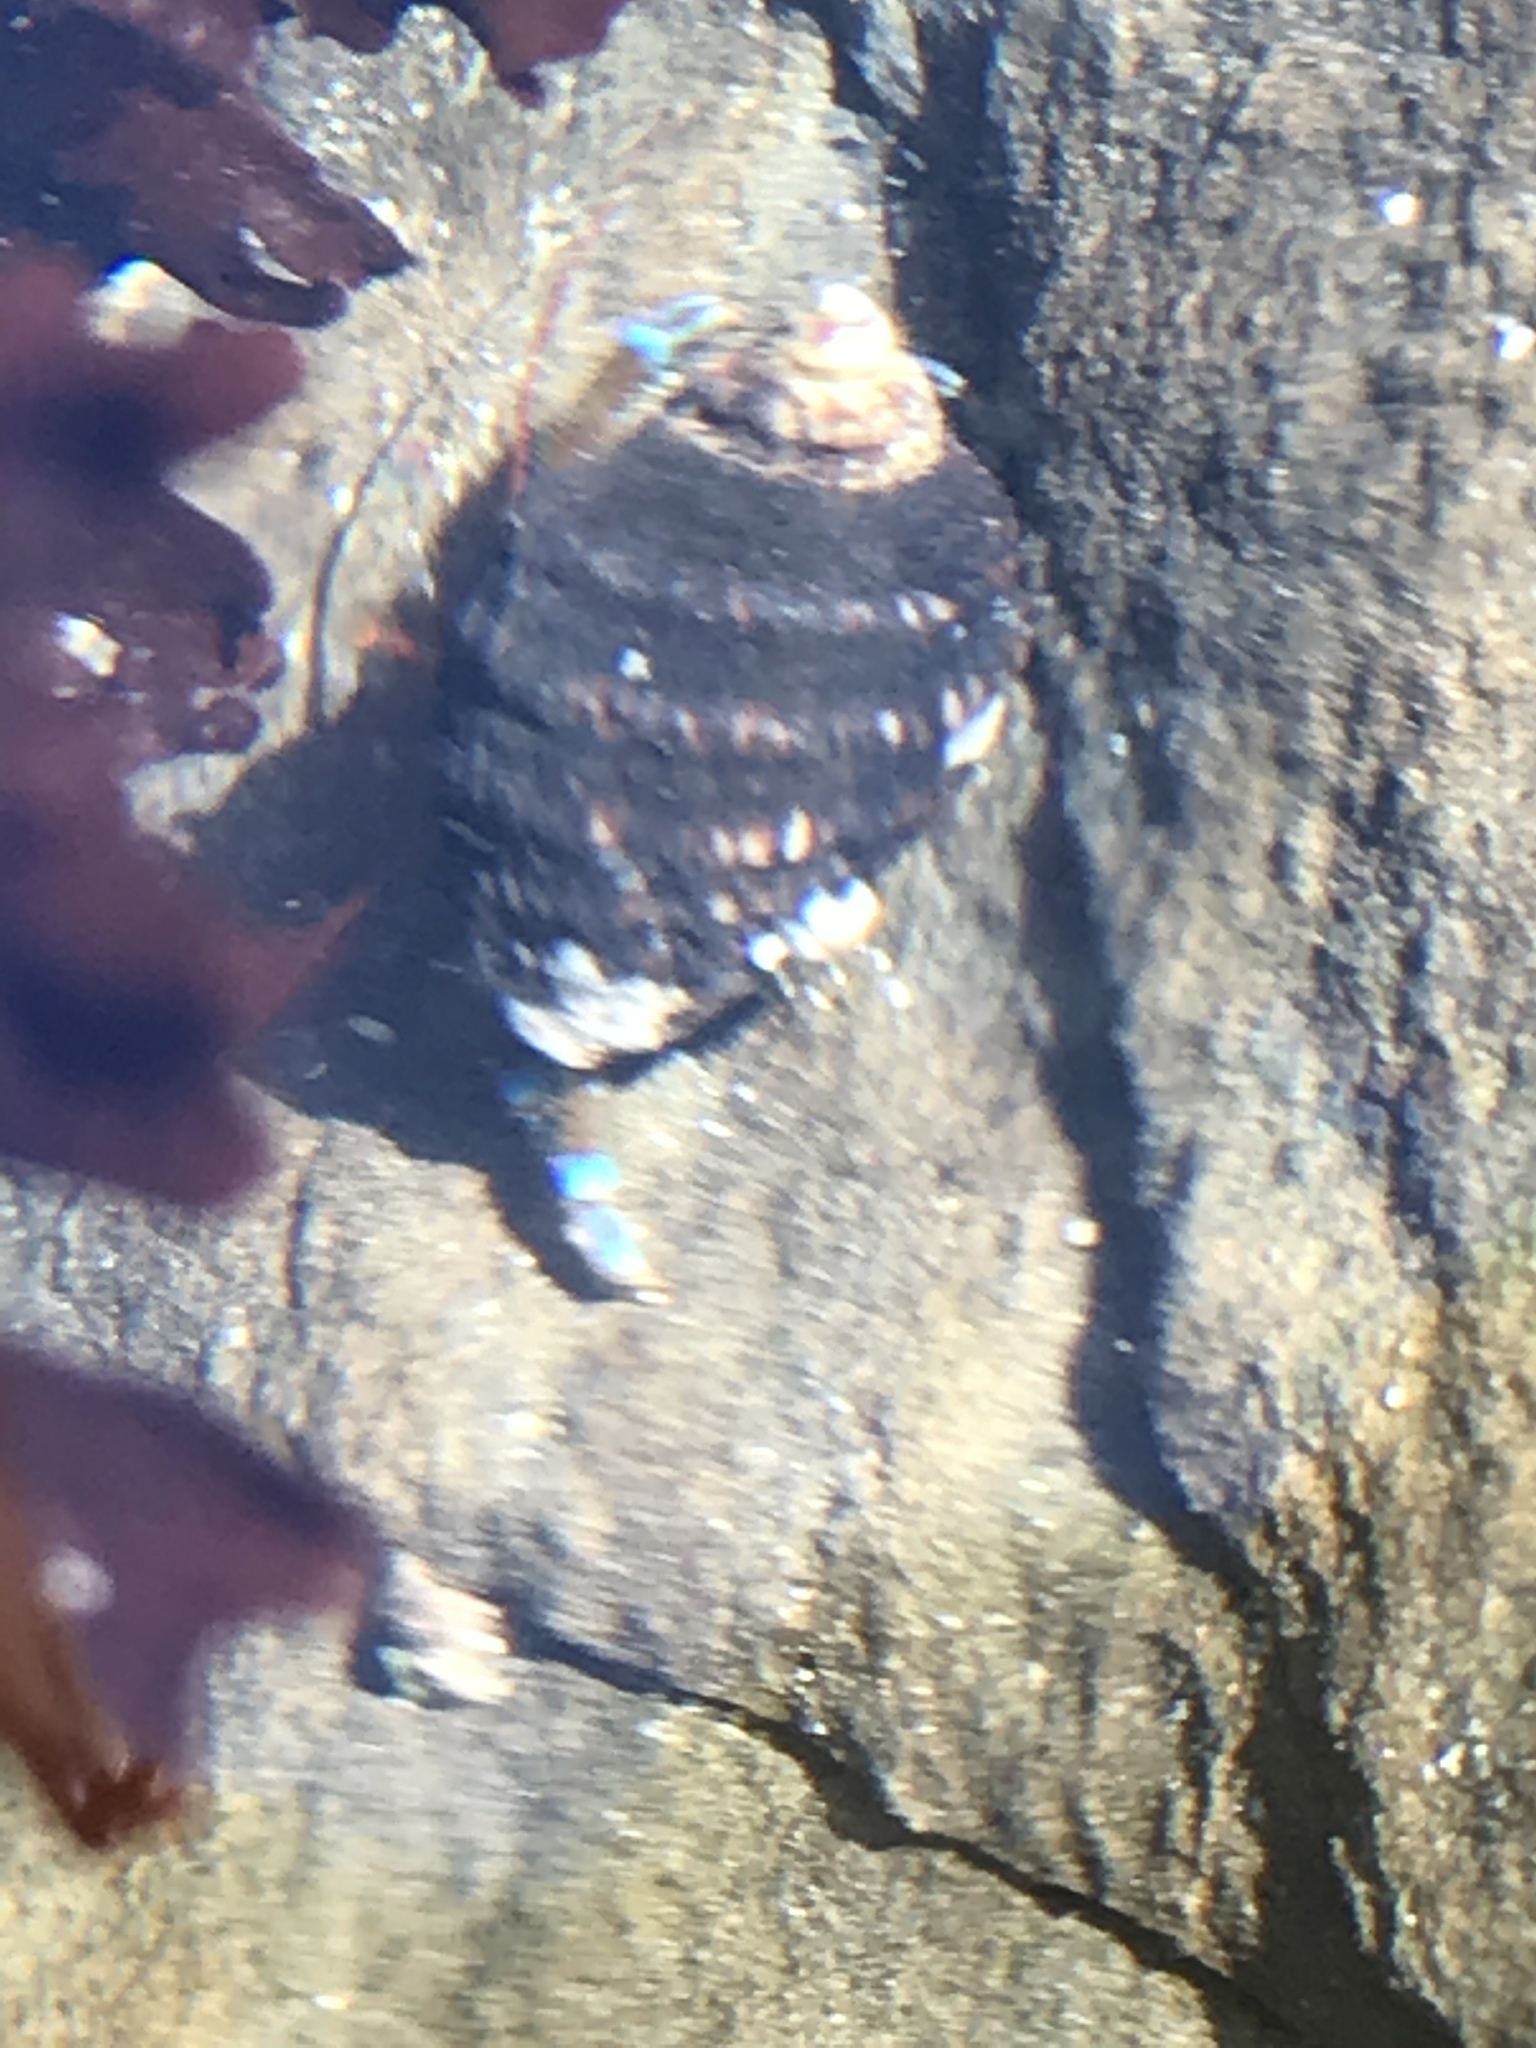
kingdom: Animalia
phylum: Arthropoda
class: Malacostraca
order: Decapoda
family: Paguridae
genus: Pagurus
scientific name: Pagurus samuelis
